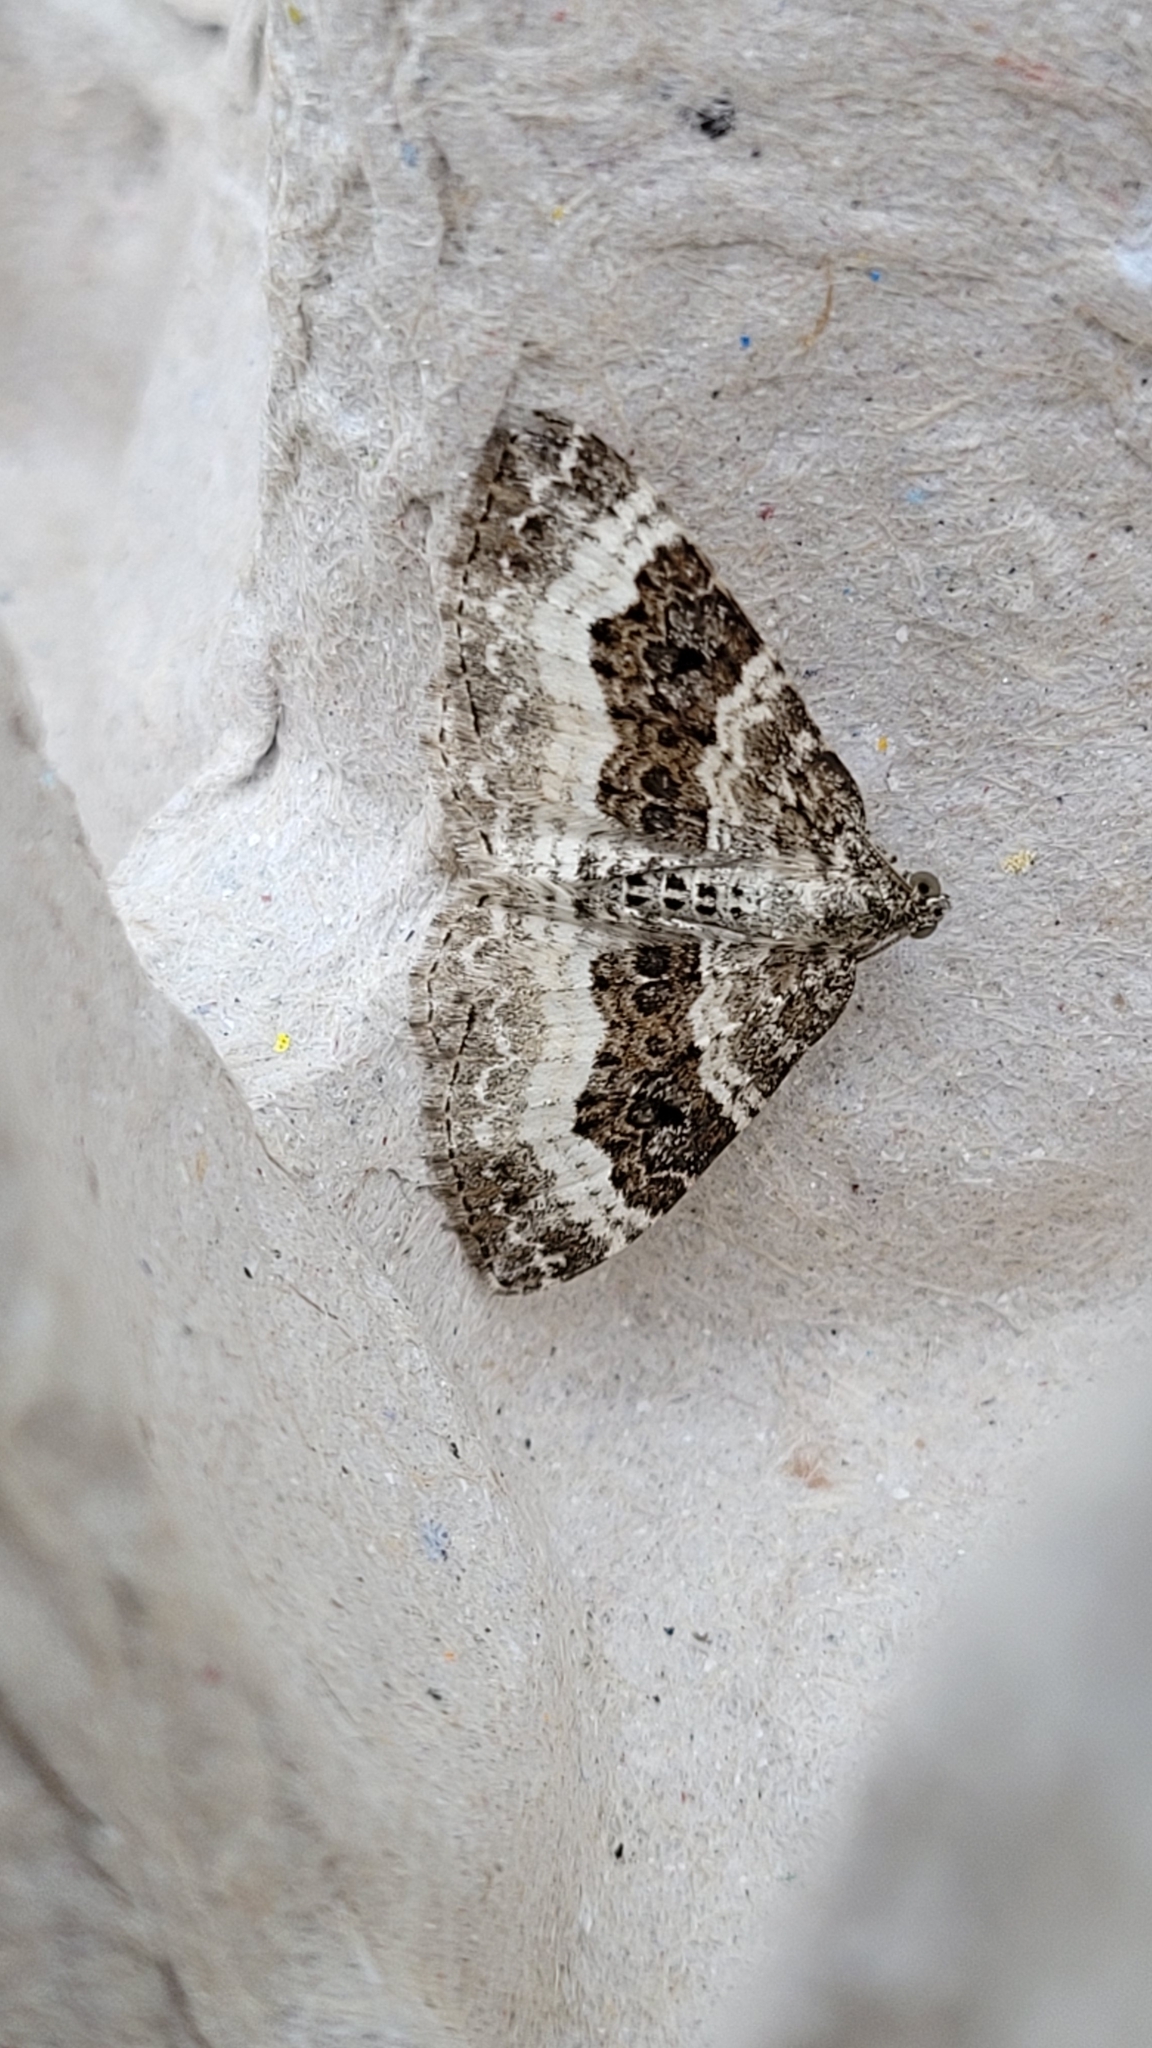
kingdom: Animalia
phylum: Arthropoda
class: Insecta
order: Lepidoptera
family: Geometridae
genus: Epirrhoe
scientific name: Epirrhoe alternata
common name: Common carpet
